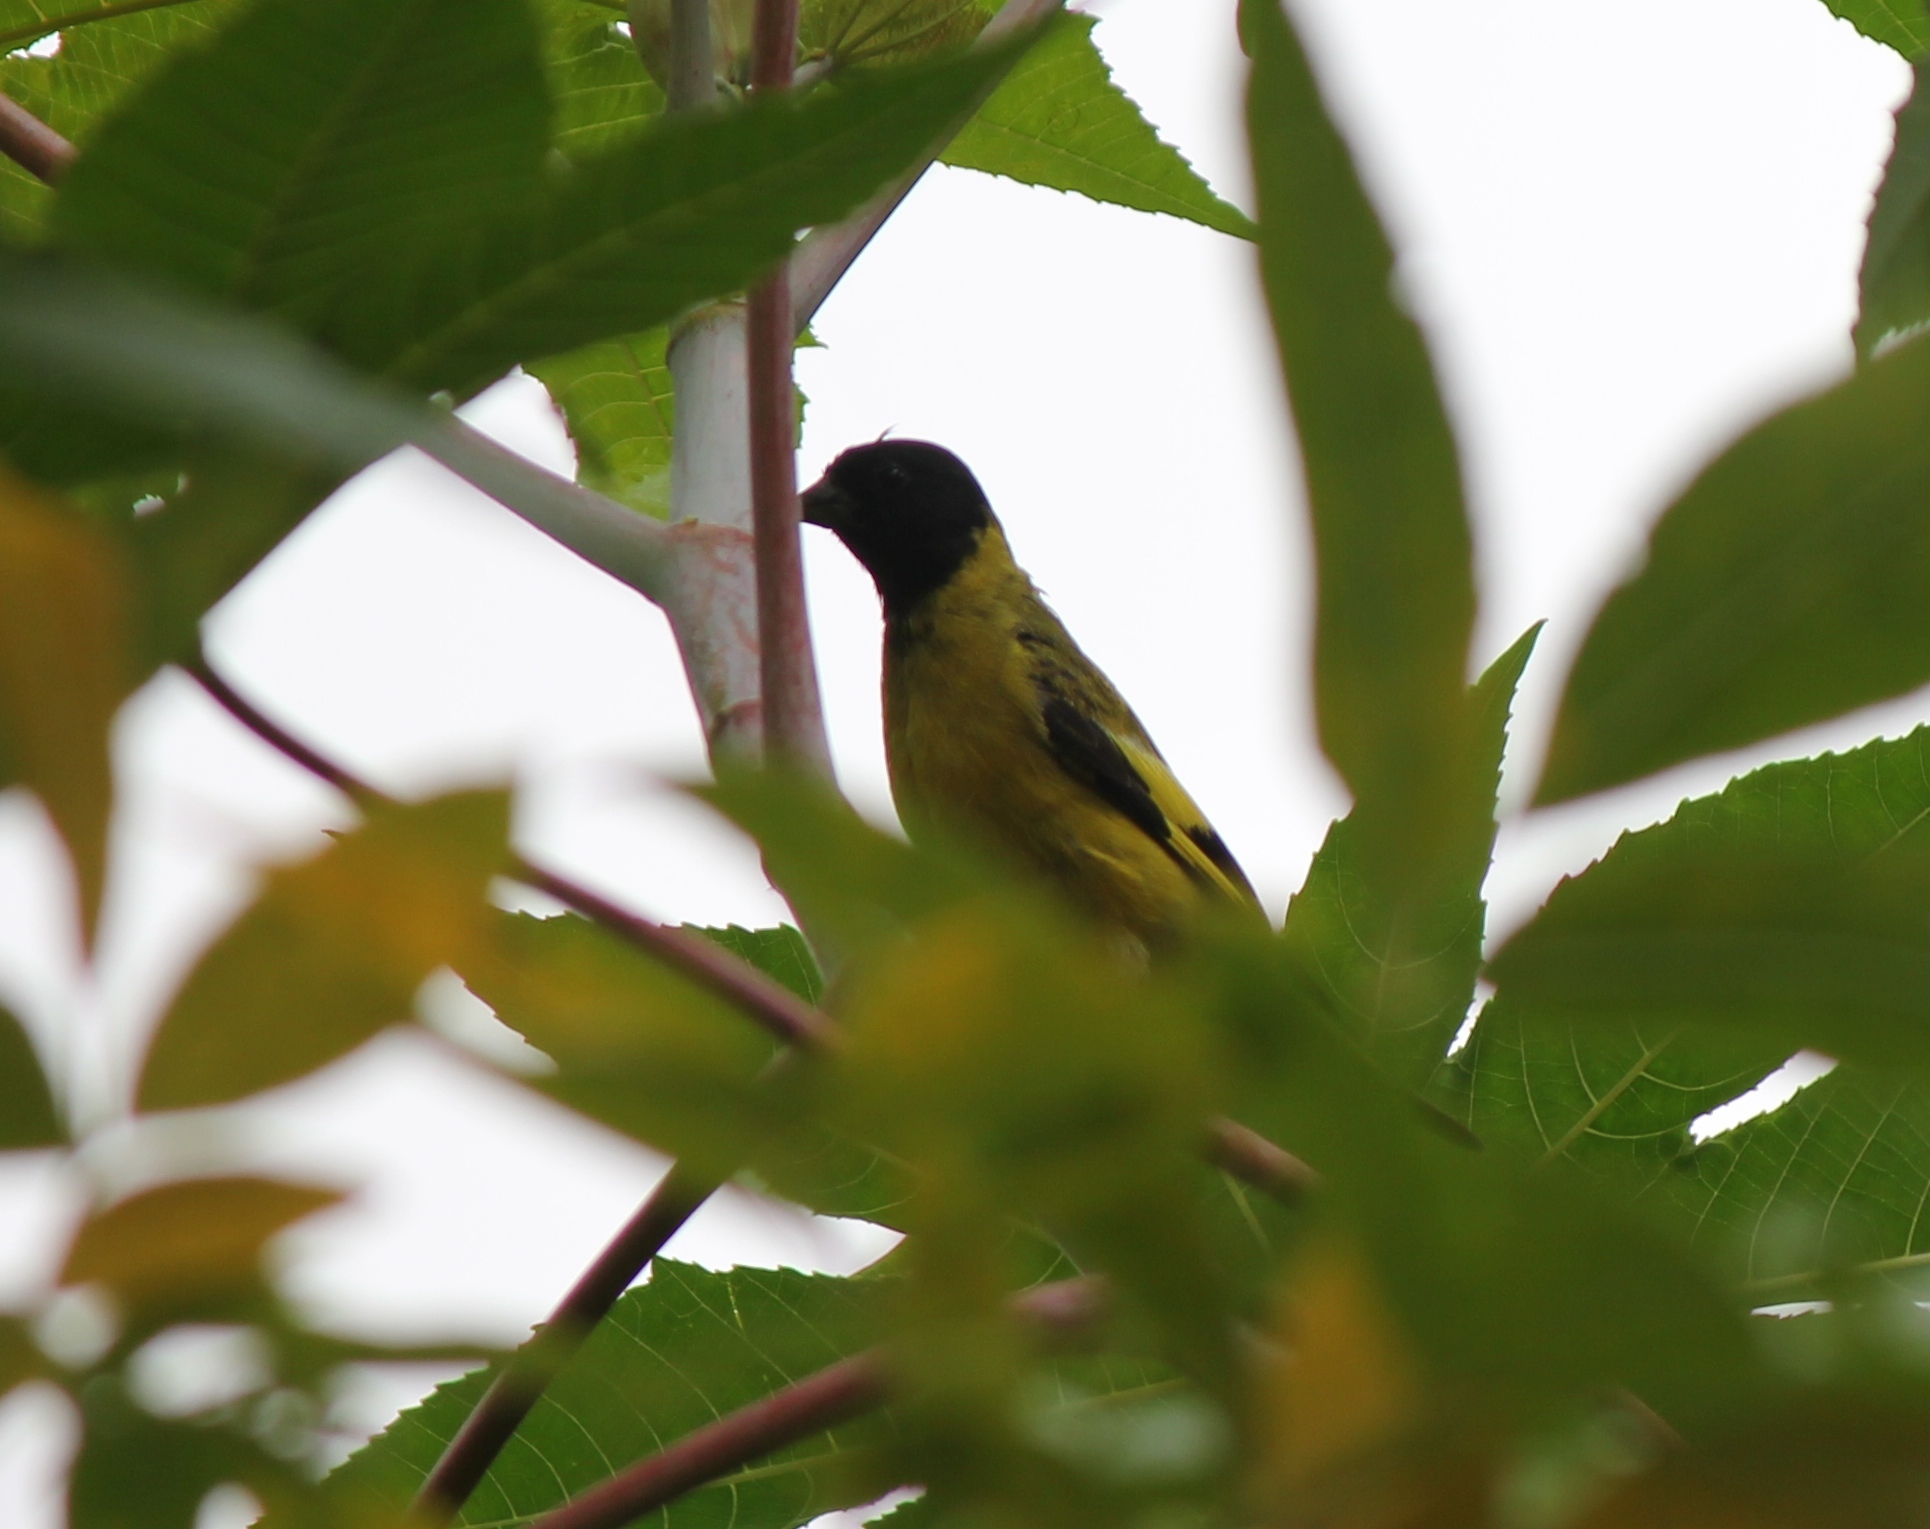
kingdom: Animalia
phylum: Chordata
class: Aves
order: Passeriformes
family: Fringillidae
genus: Spinus
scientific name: Spinus magellanicus
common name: Hooded siskin
